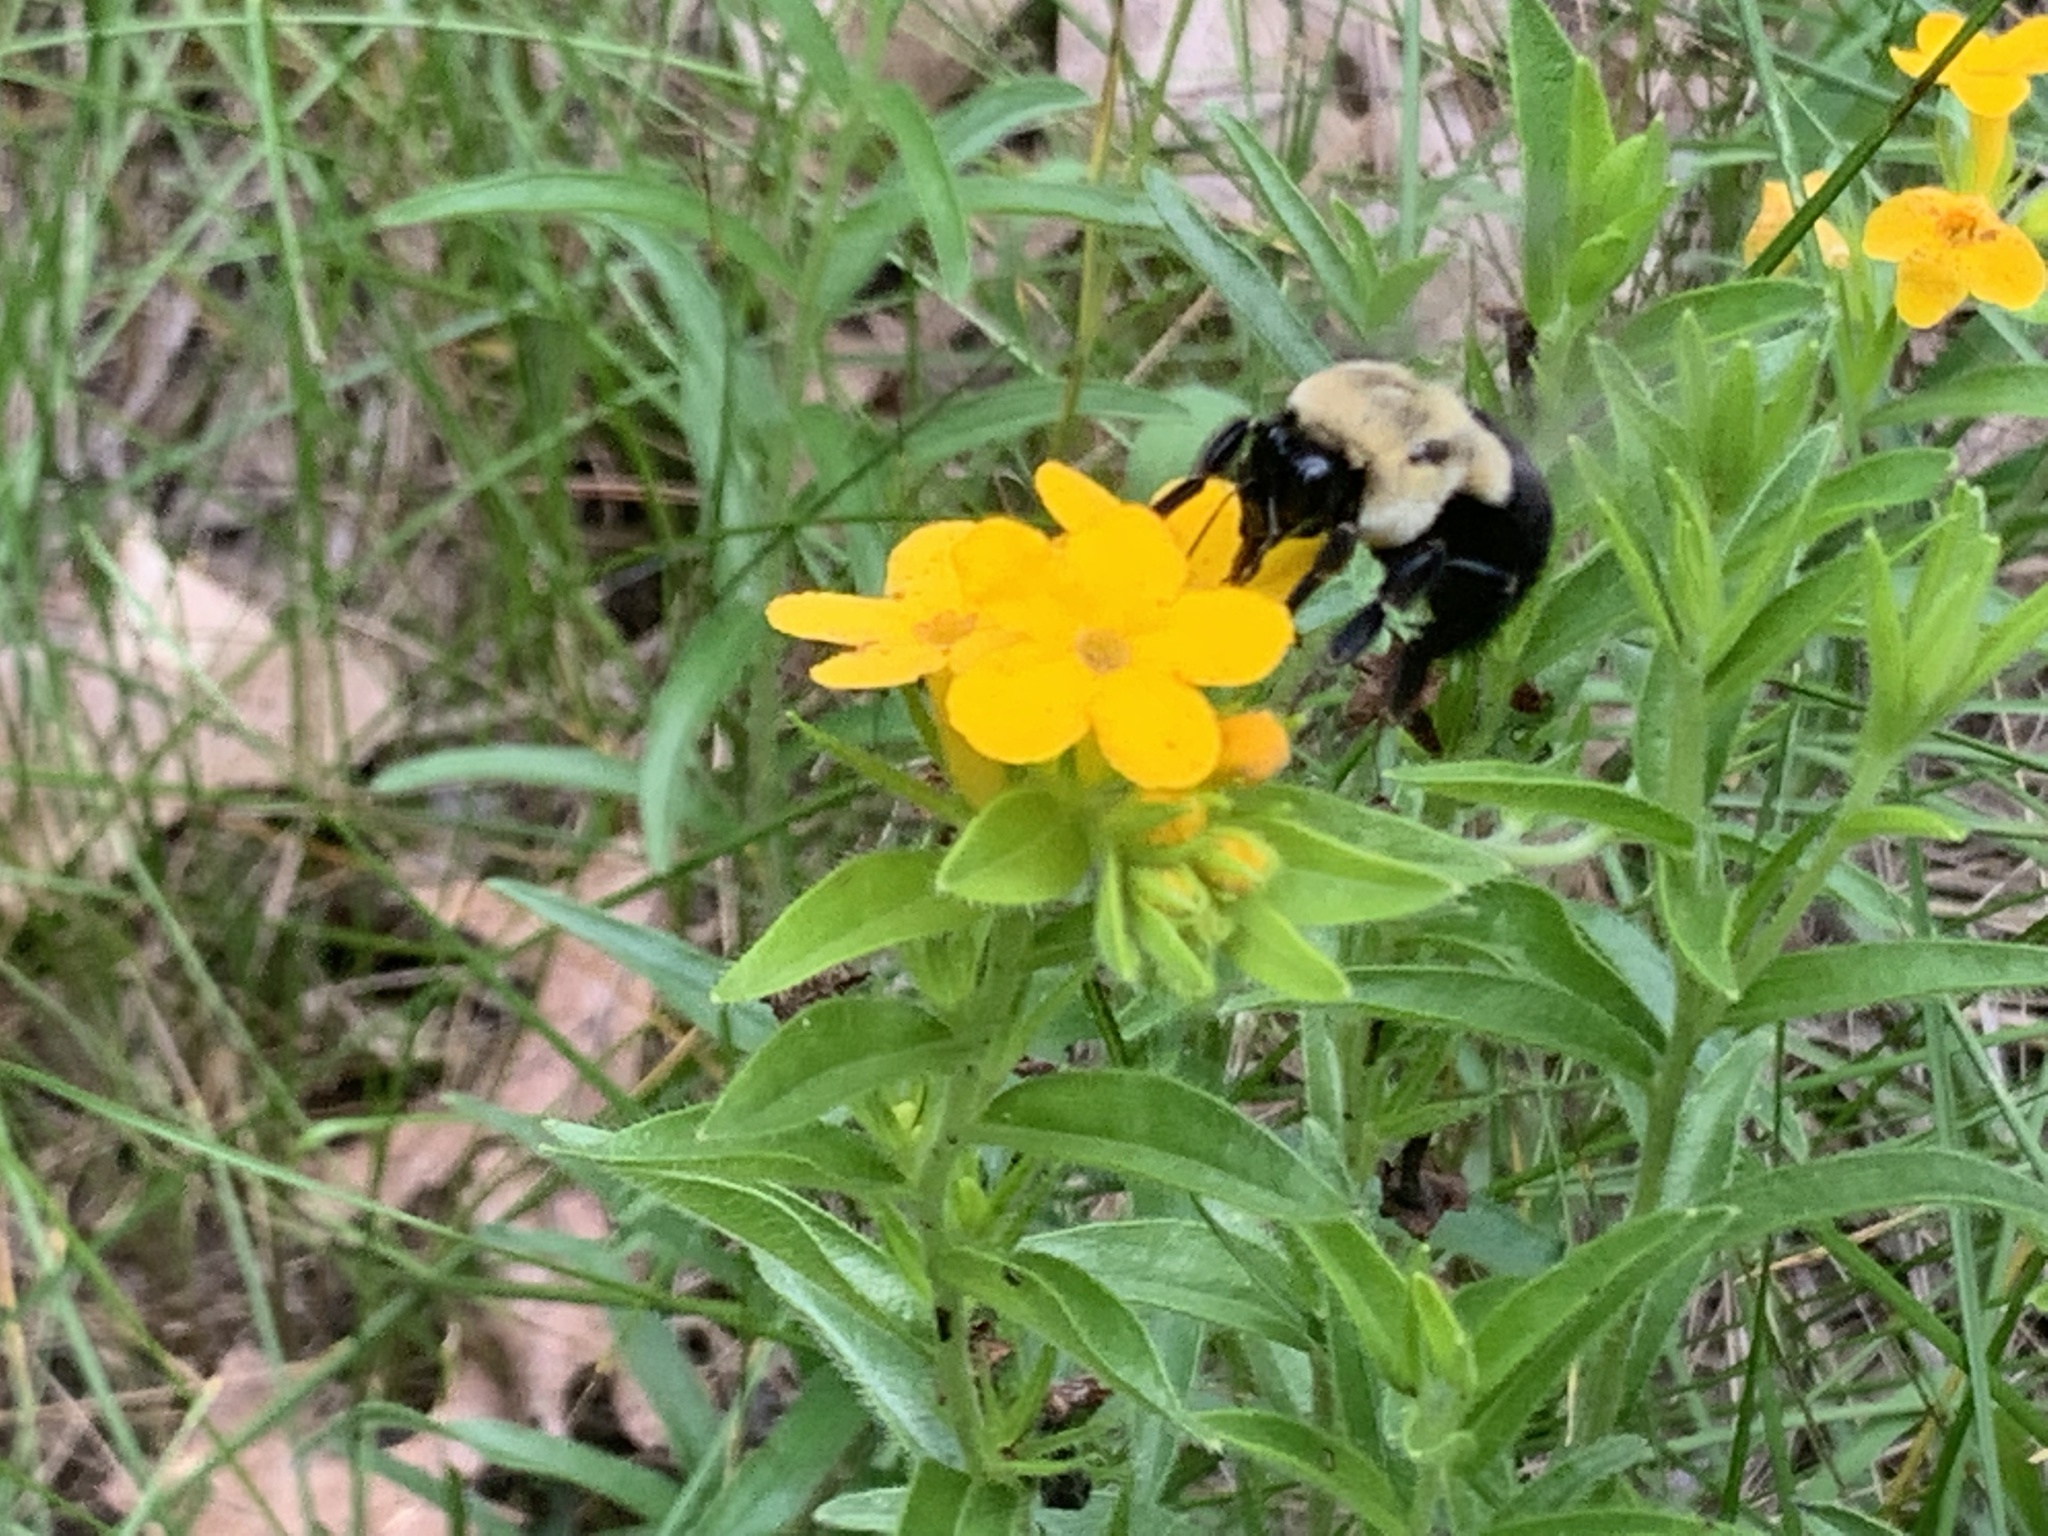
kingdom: Animalia
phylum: Arthropoda
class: Insecta
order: Hymenoptera
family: Apidae
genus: Bombus
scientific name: Bombus impatiens
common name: Common eastern bumble bee
